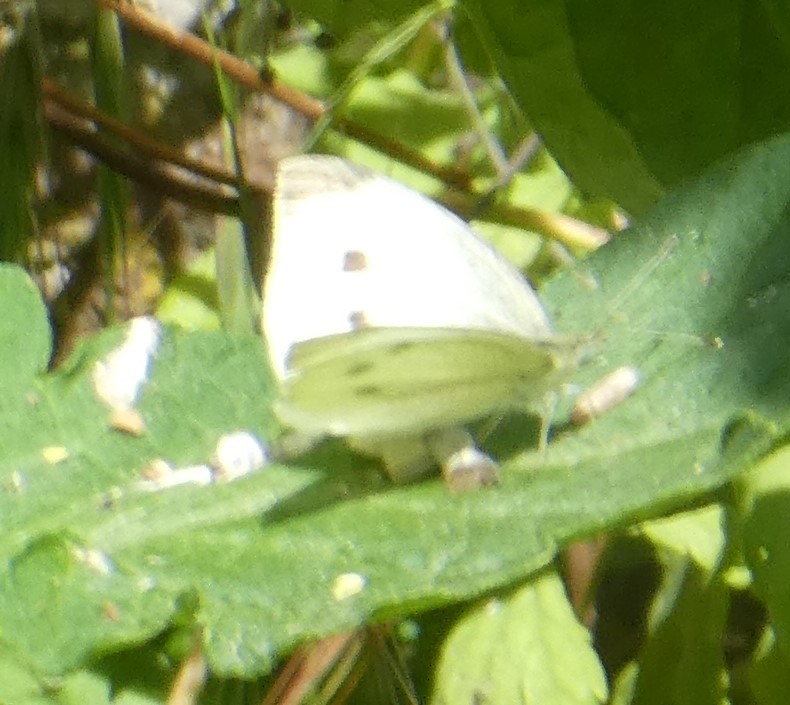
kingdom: Animalia
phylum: Arthropoda
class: Insecta
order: Lepidoptera
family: Pieridae
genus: Pieris
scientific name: Pieris rapae
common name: Small white
